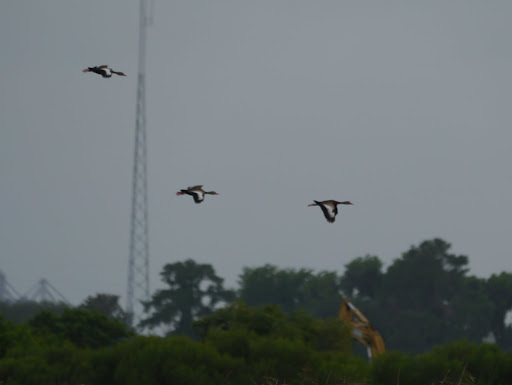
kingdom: Animalia
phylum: Chordata
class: Aves
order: Anseriformes
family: Anatidae
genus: Dendrocygna
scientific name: Dendrocygna autumnalis
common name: Black-bellied whistling duck
